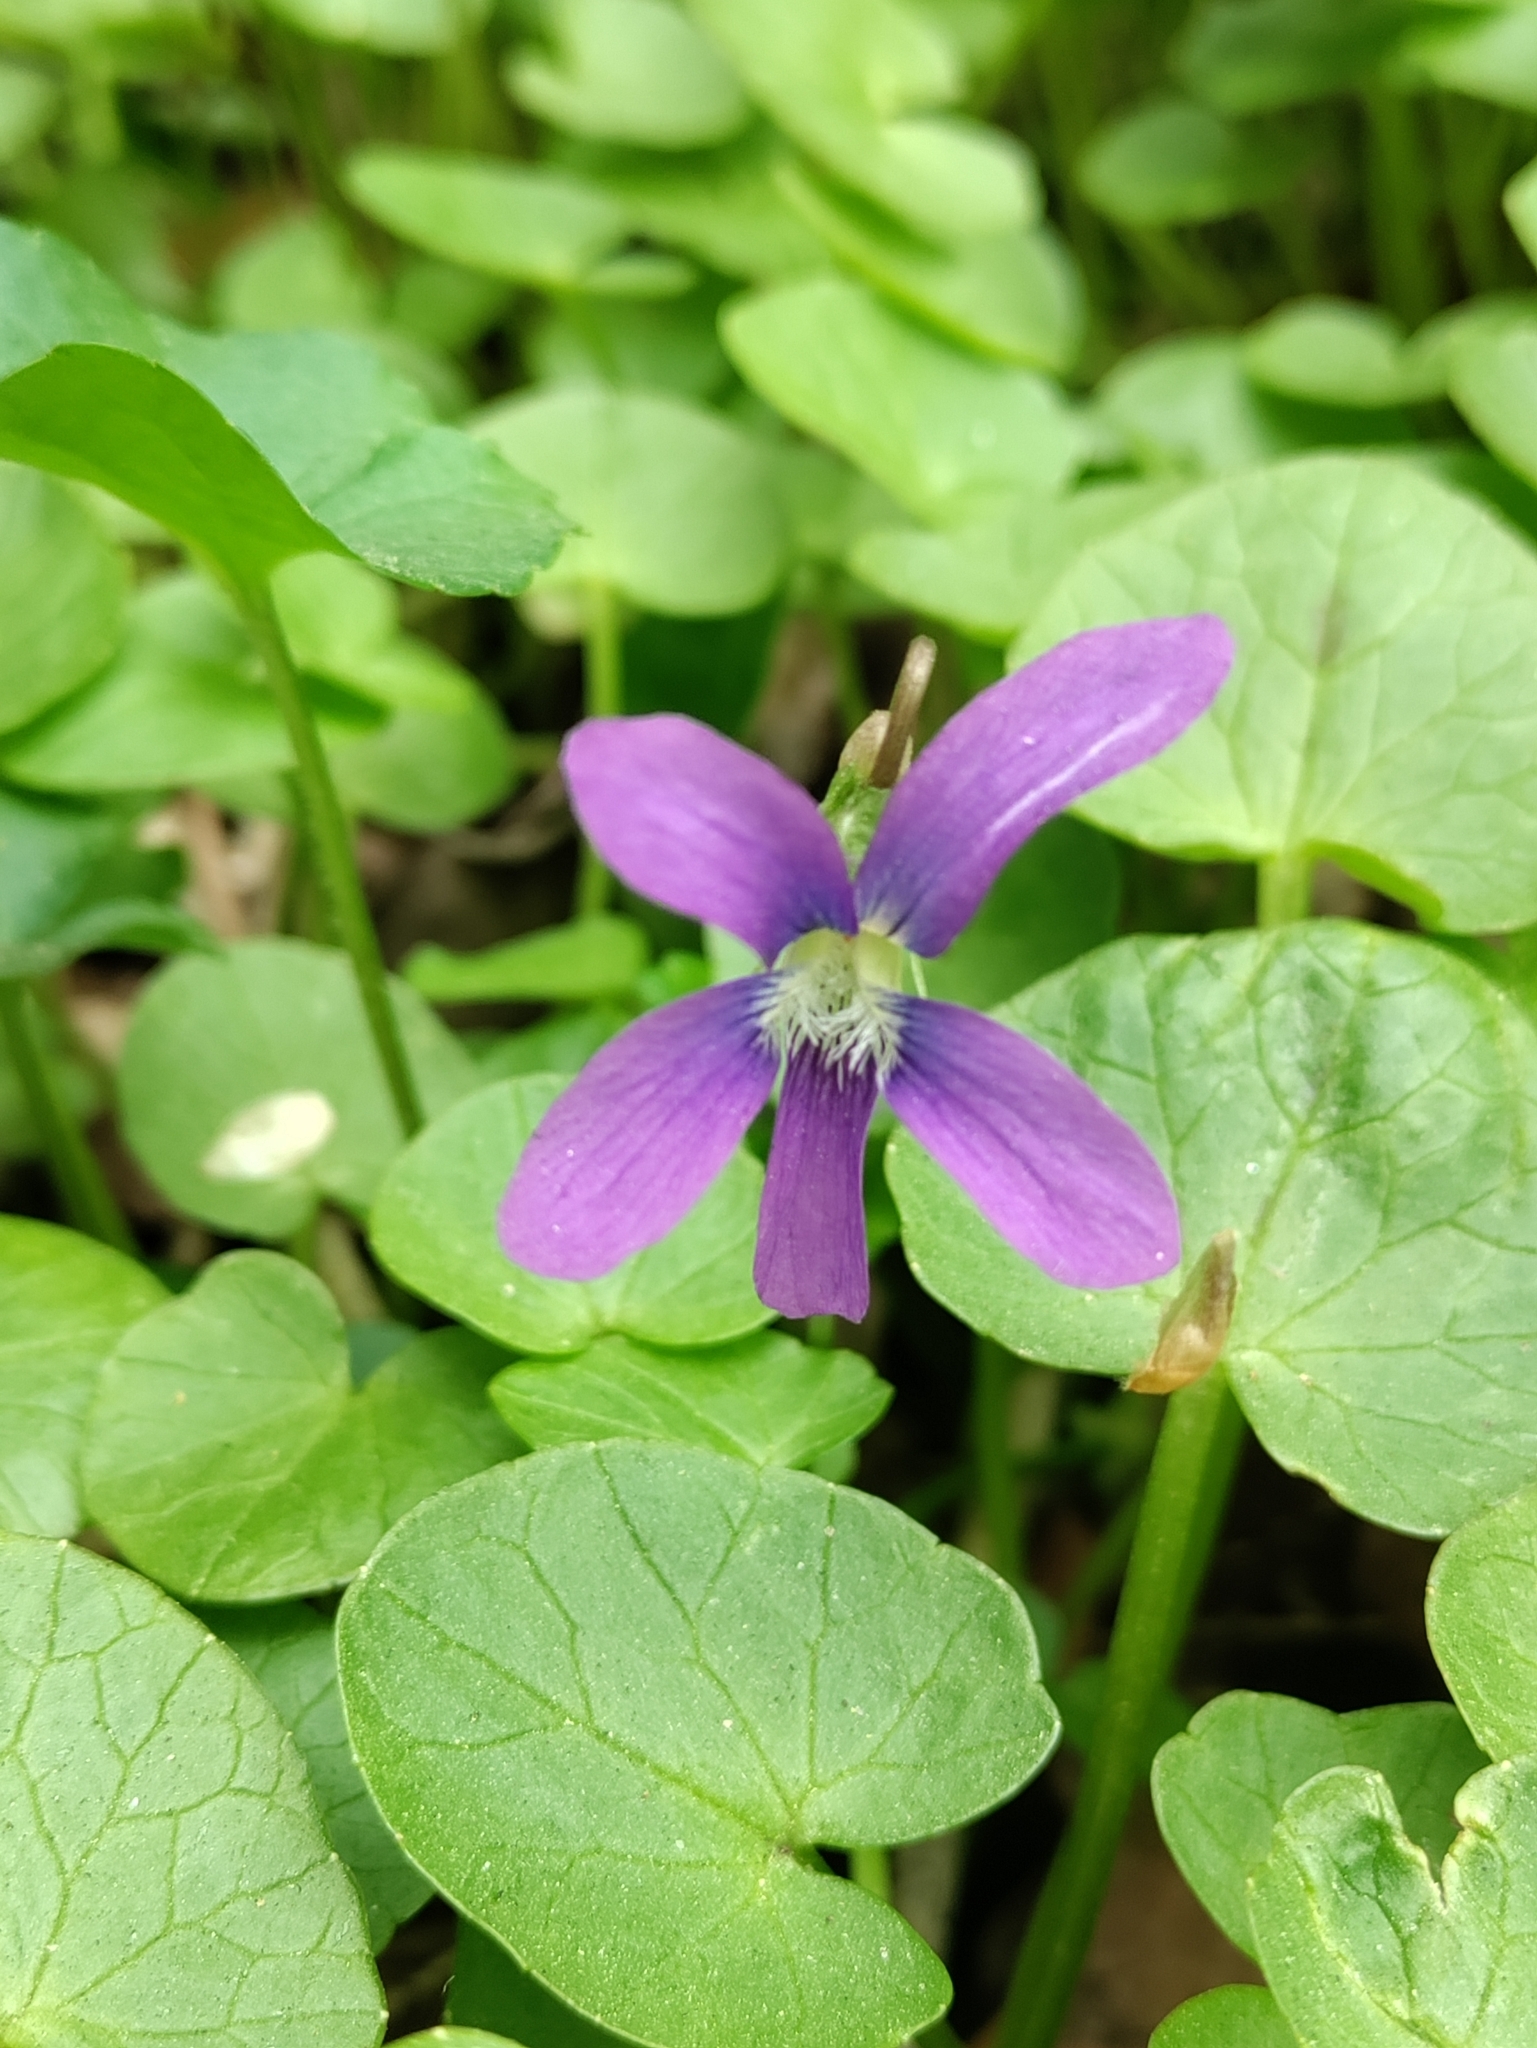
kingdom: Plantae
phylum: Tracheophyta
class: Magnoliopsida
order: Malpighiales
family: Violaceae
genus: Viola
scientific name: Viola sororia
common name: Dooryard violet
